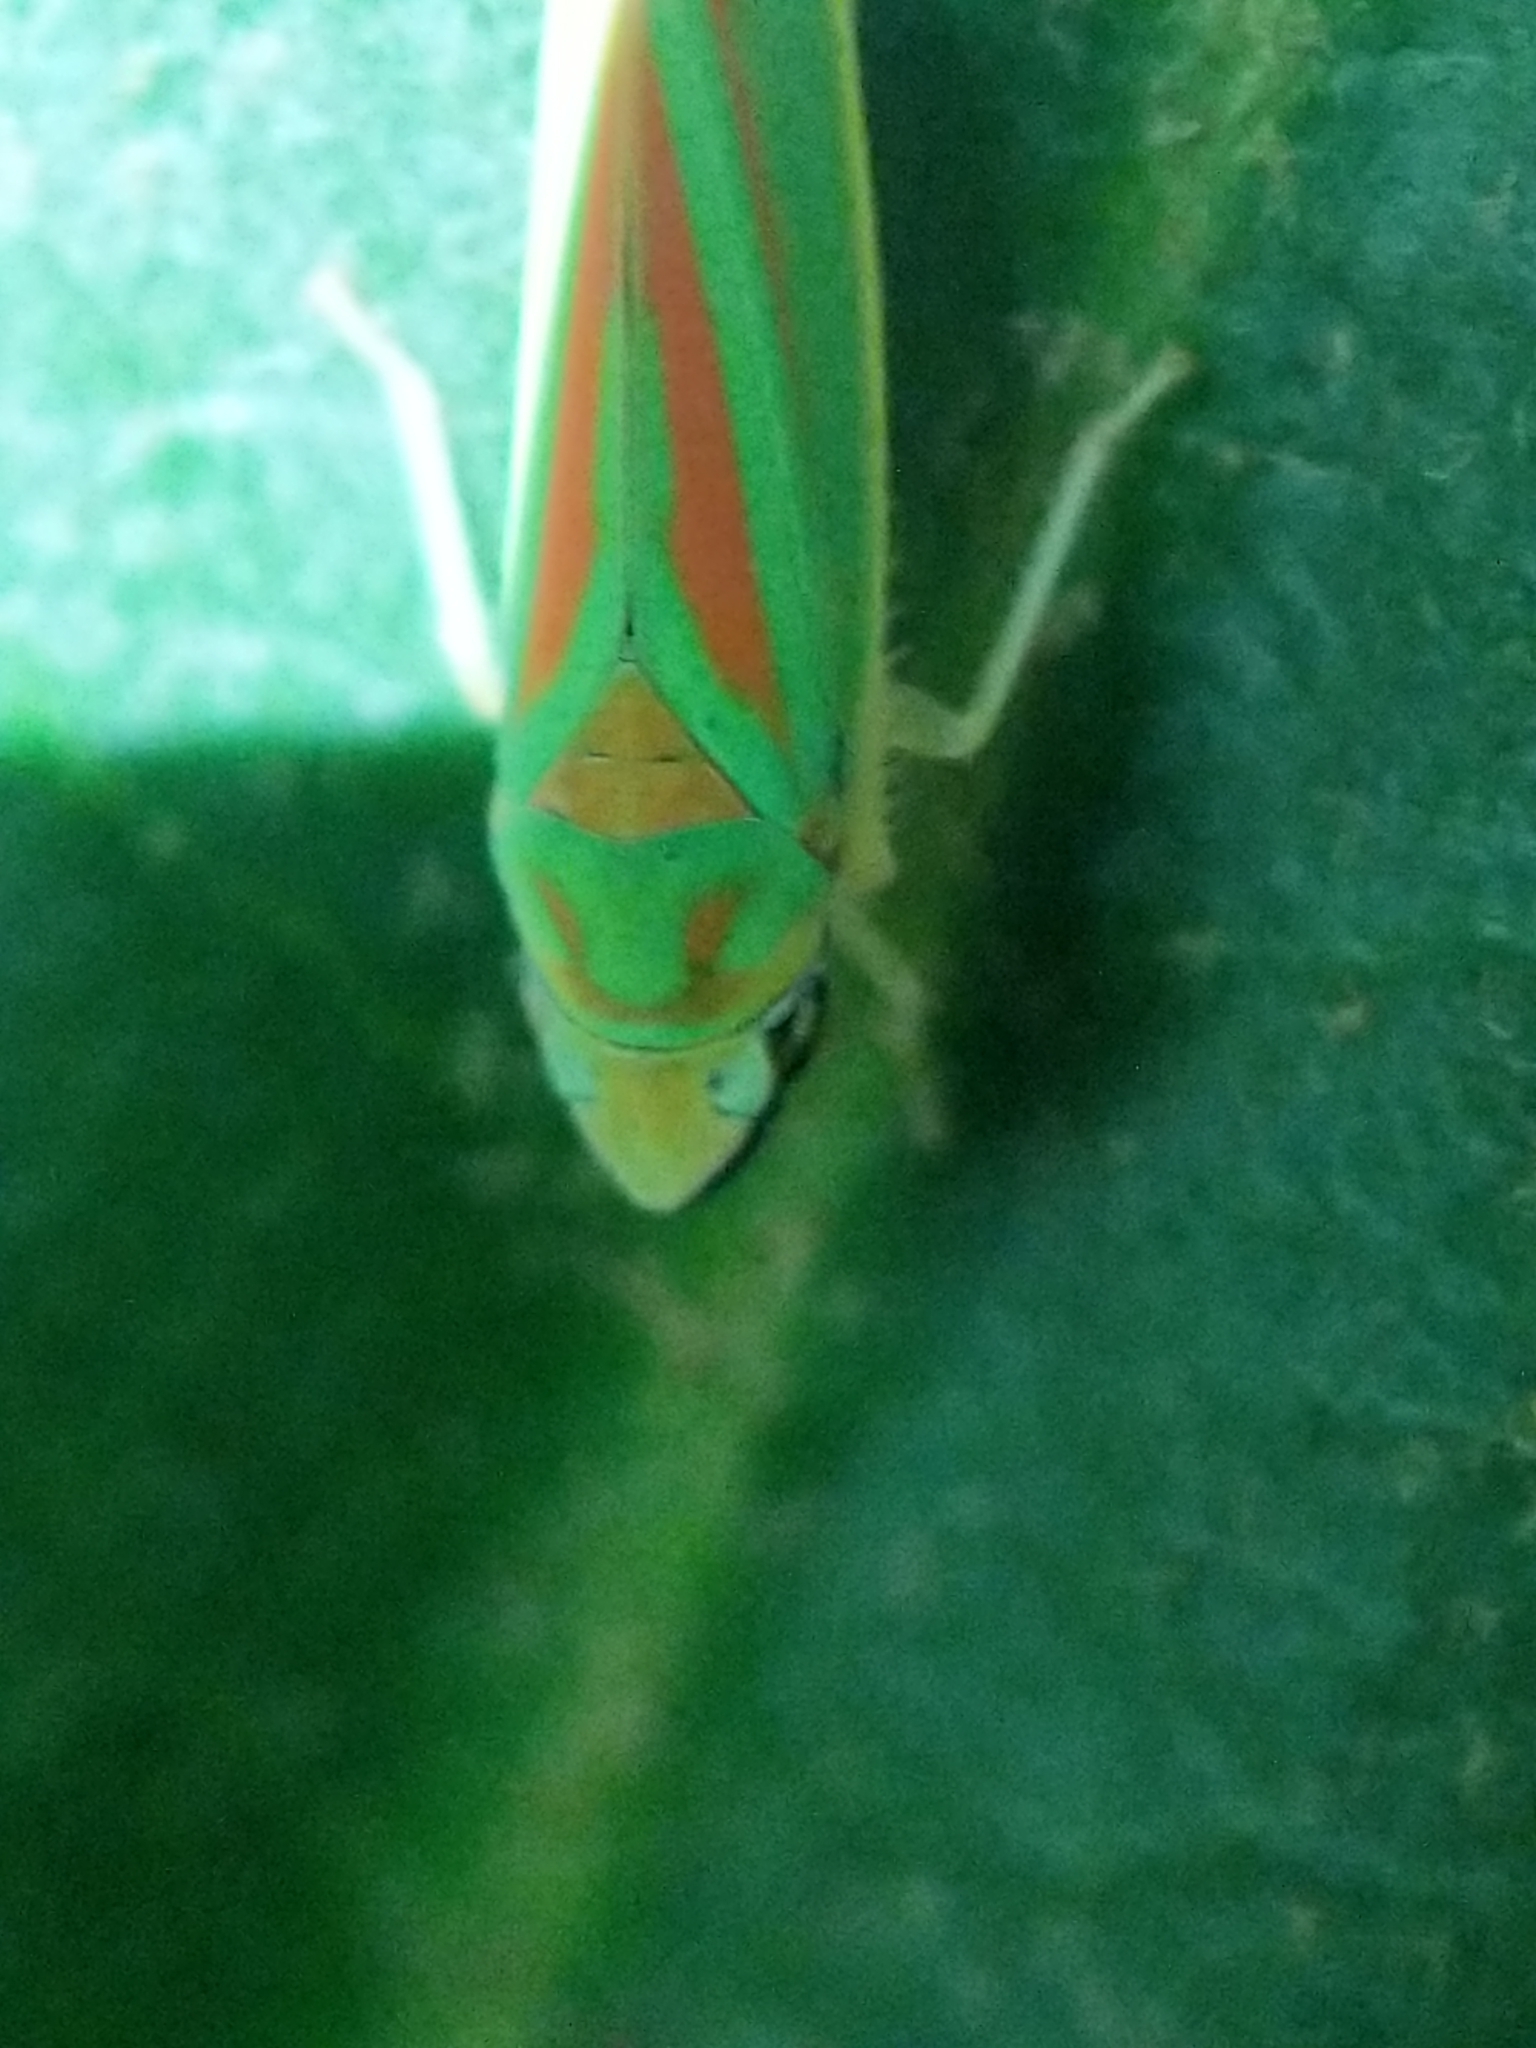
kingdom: Animalia
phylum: Arthropoda
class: Insecta
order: Hemiptera
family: Cicadellidae
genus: Graphocephala
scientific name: Graphocephala fennahi
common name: Rhododendron leafhopper
